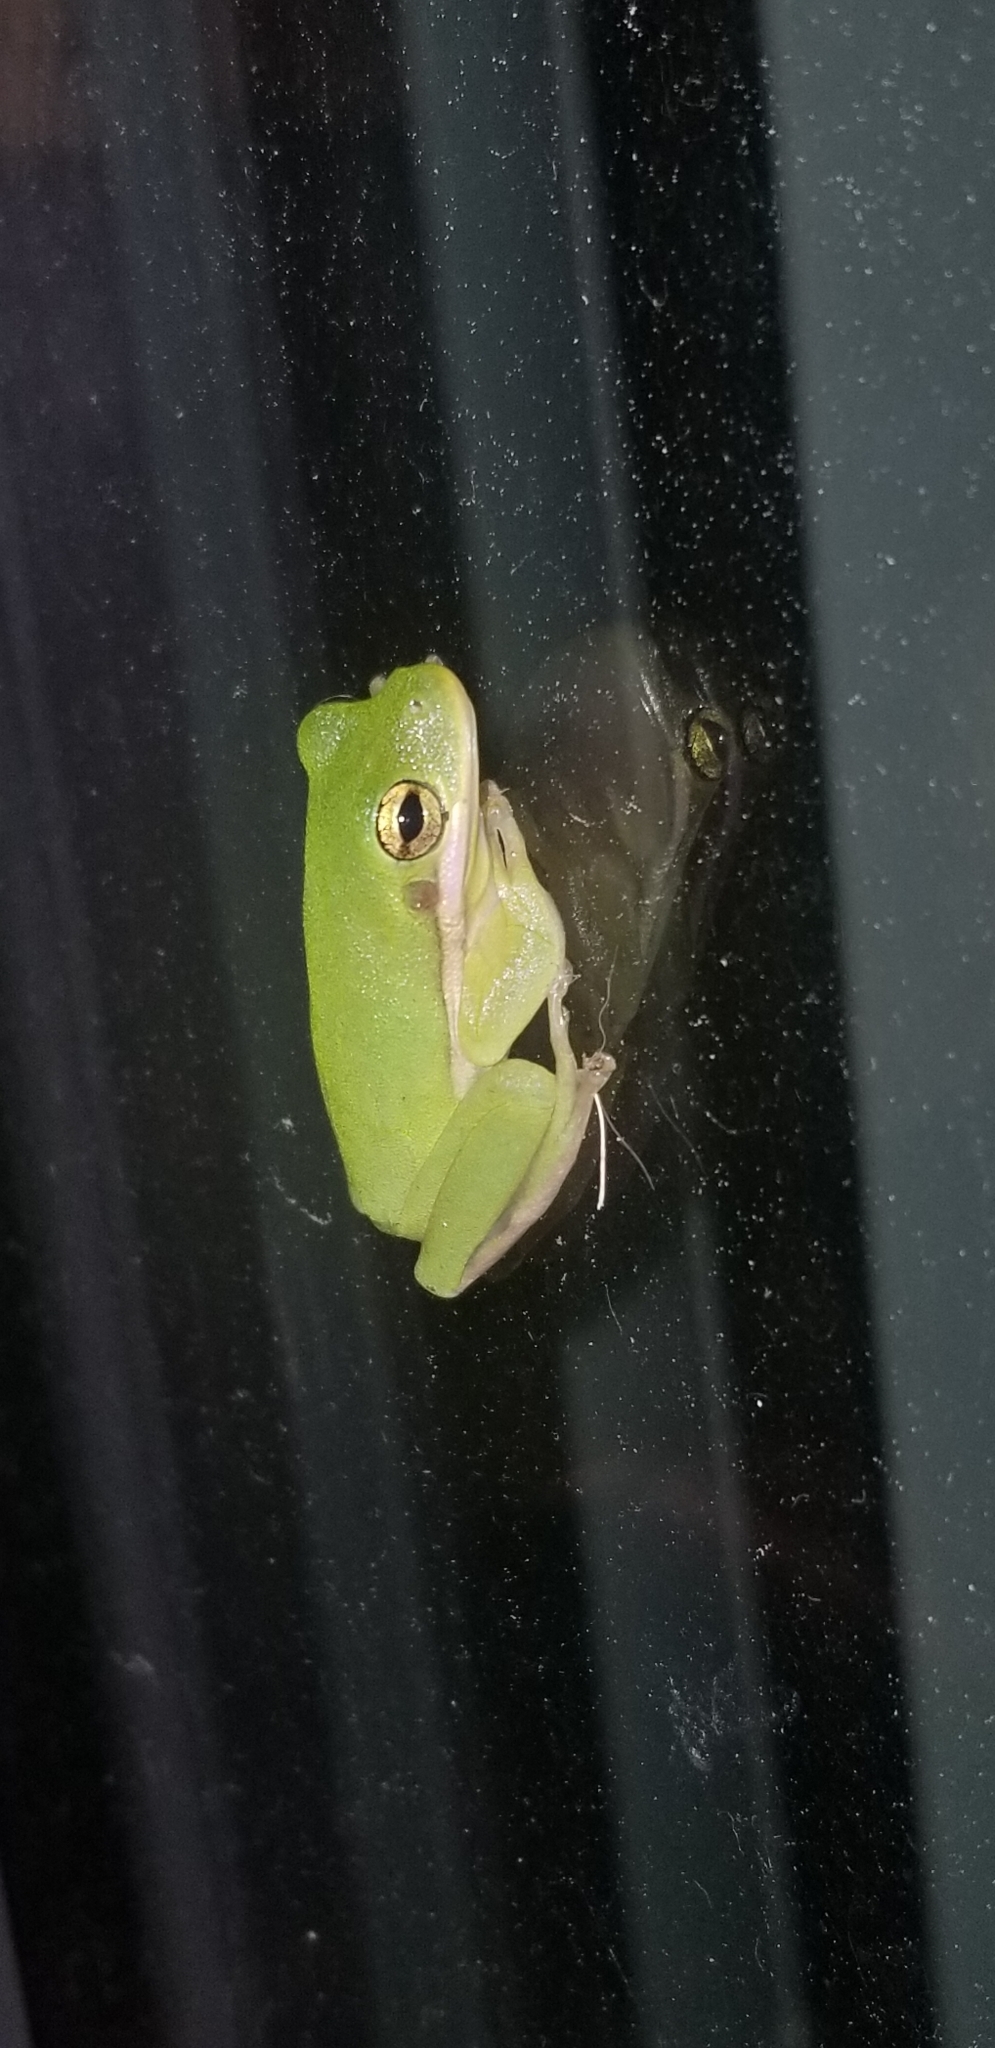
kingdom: Animalia
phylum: Chordata
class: Amphibia
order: Anura
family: Hylidae
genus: Dryophytes
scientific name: Dryophytes cinereus
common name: Green treefrog
